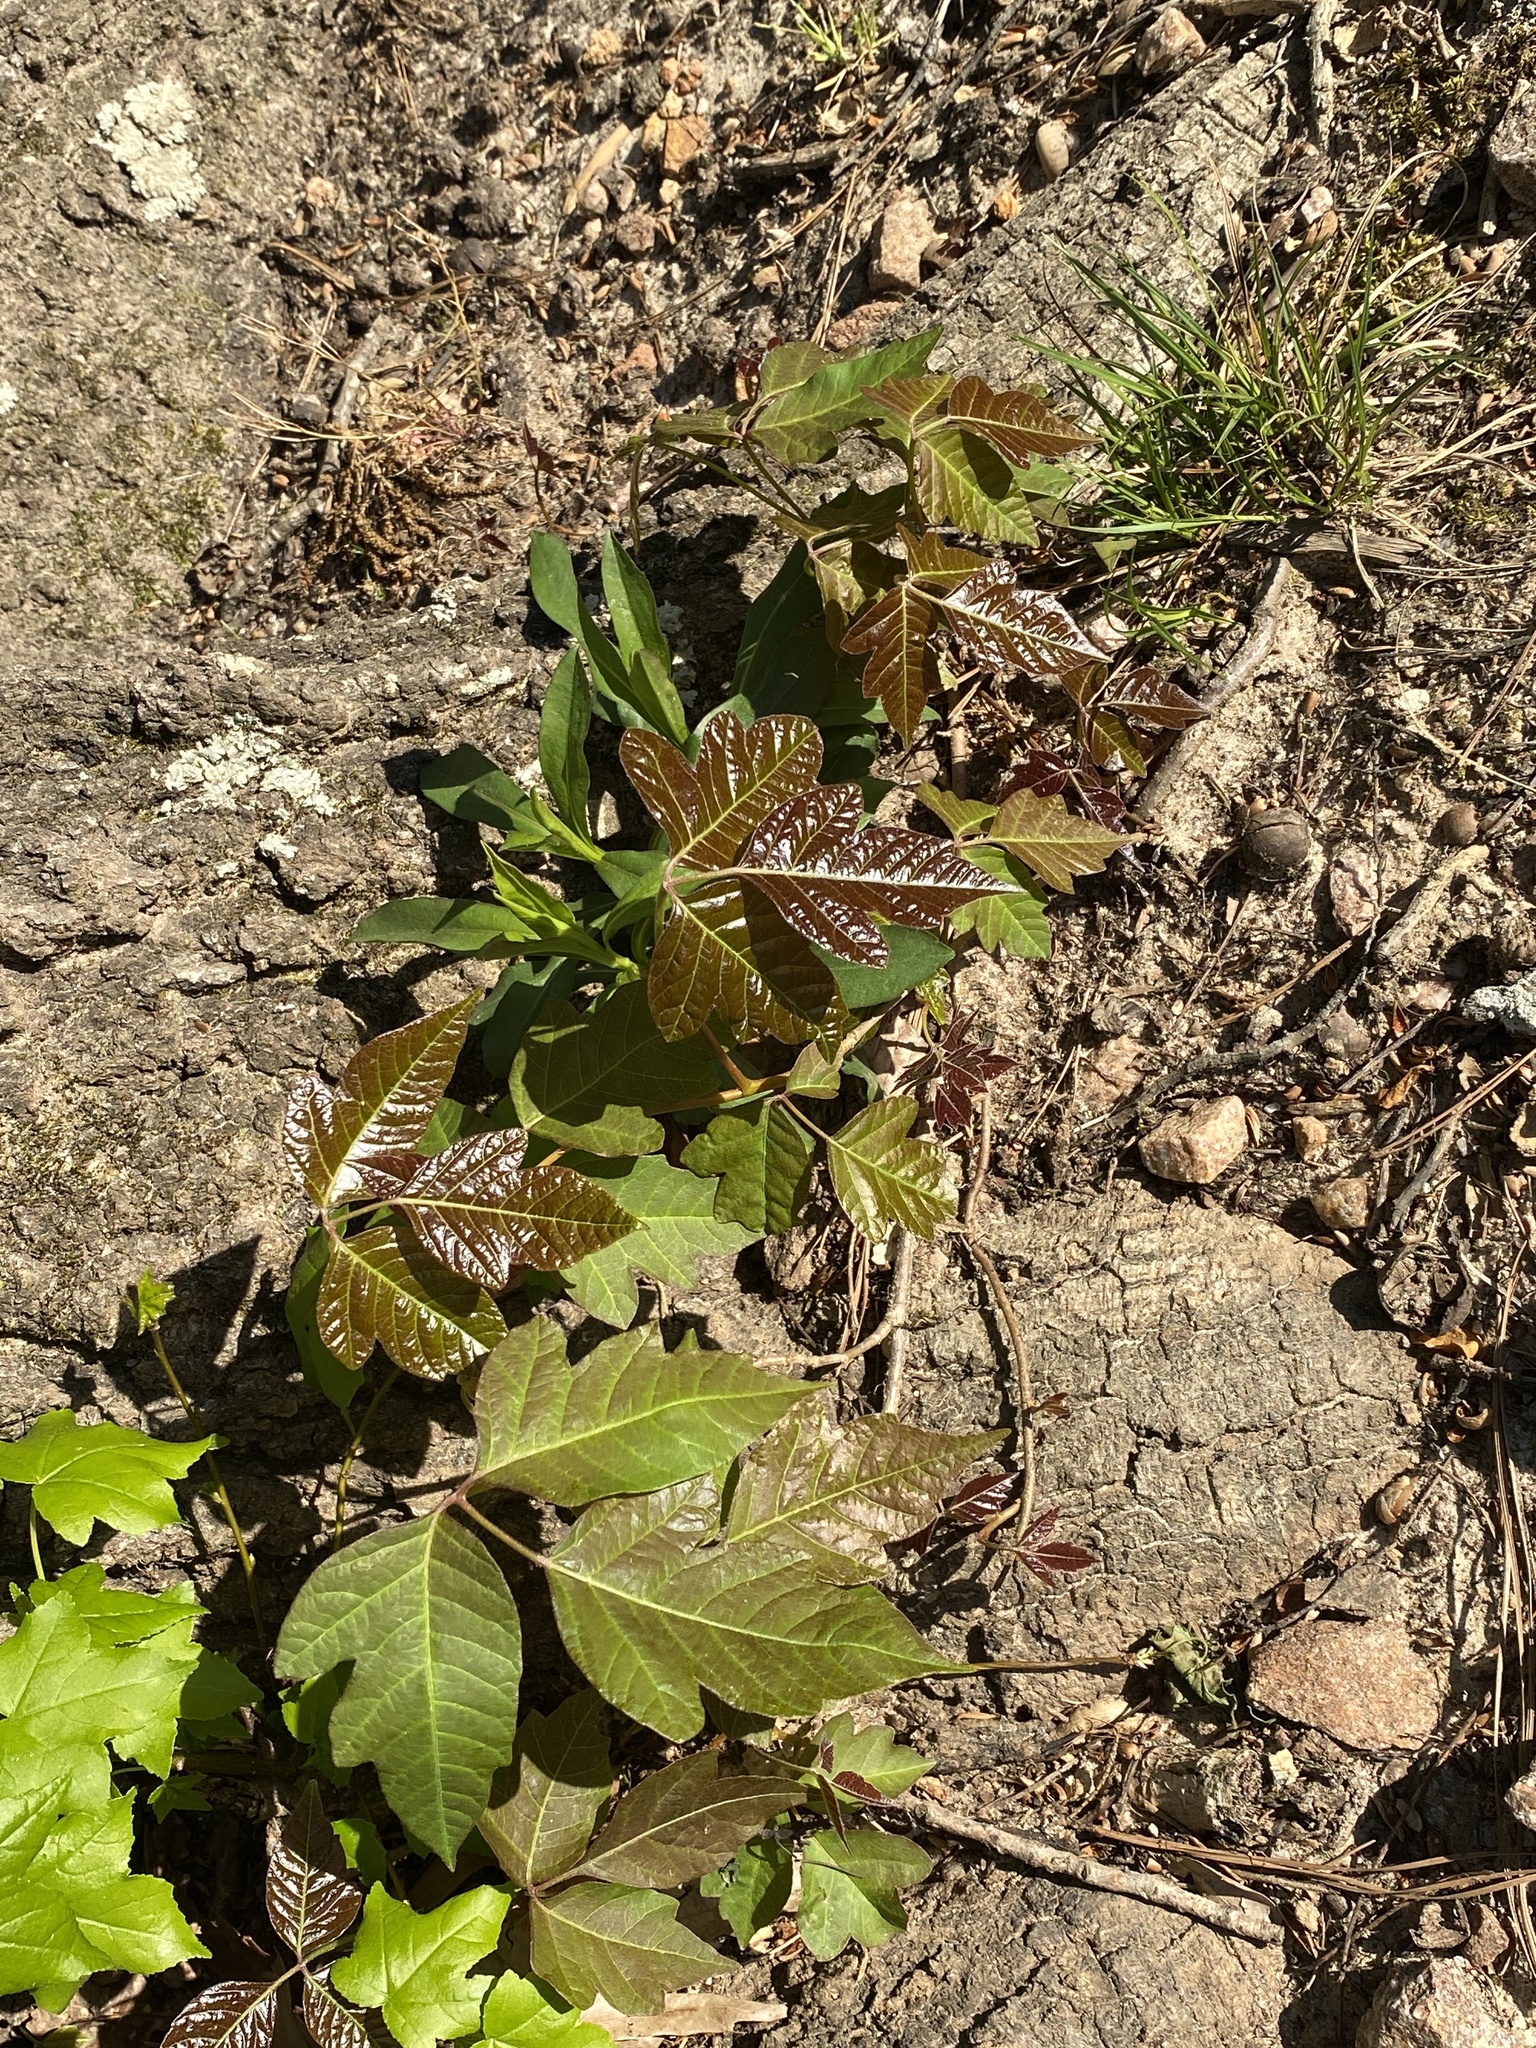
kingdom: Plantae
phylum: Tracheophyta
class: Magnoliopsida
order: Sapindales
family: Anacardiaceae
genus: Toxicodendron
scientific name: Toxicodendron radicans
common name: Poison ivy
